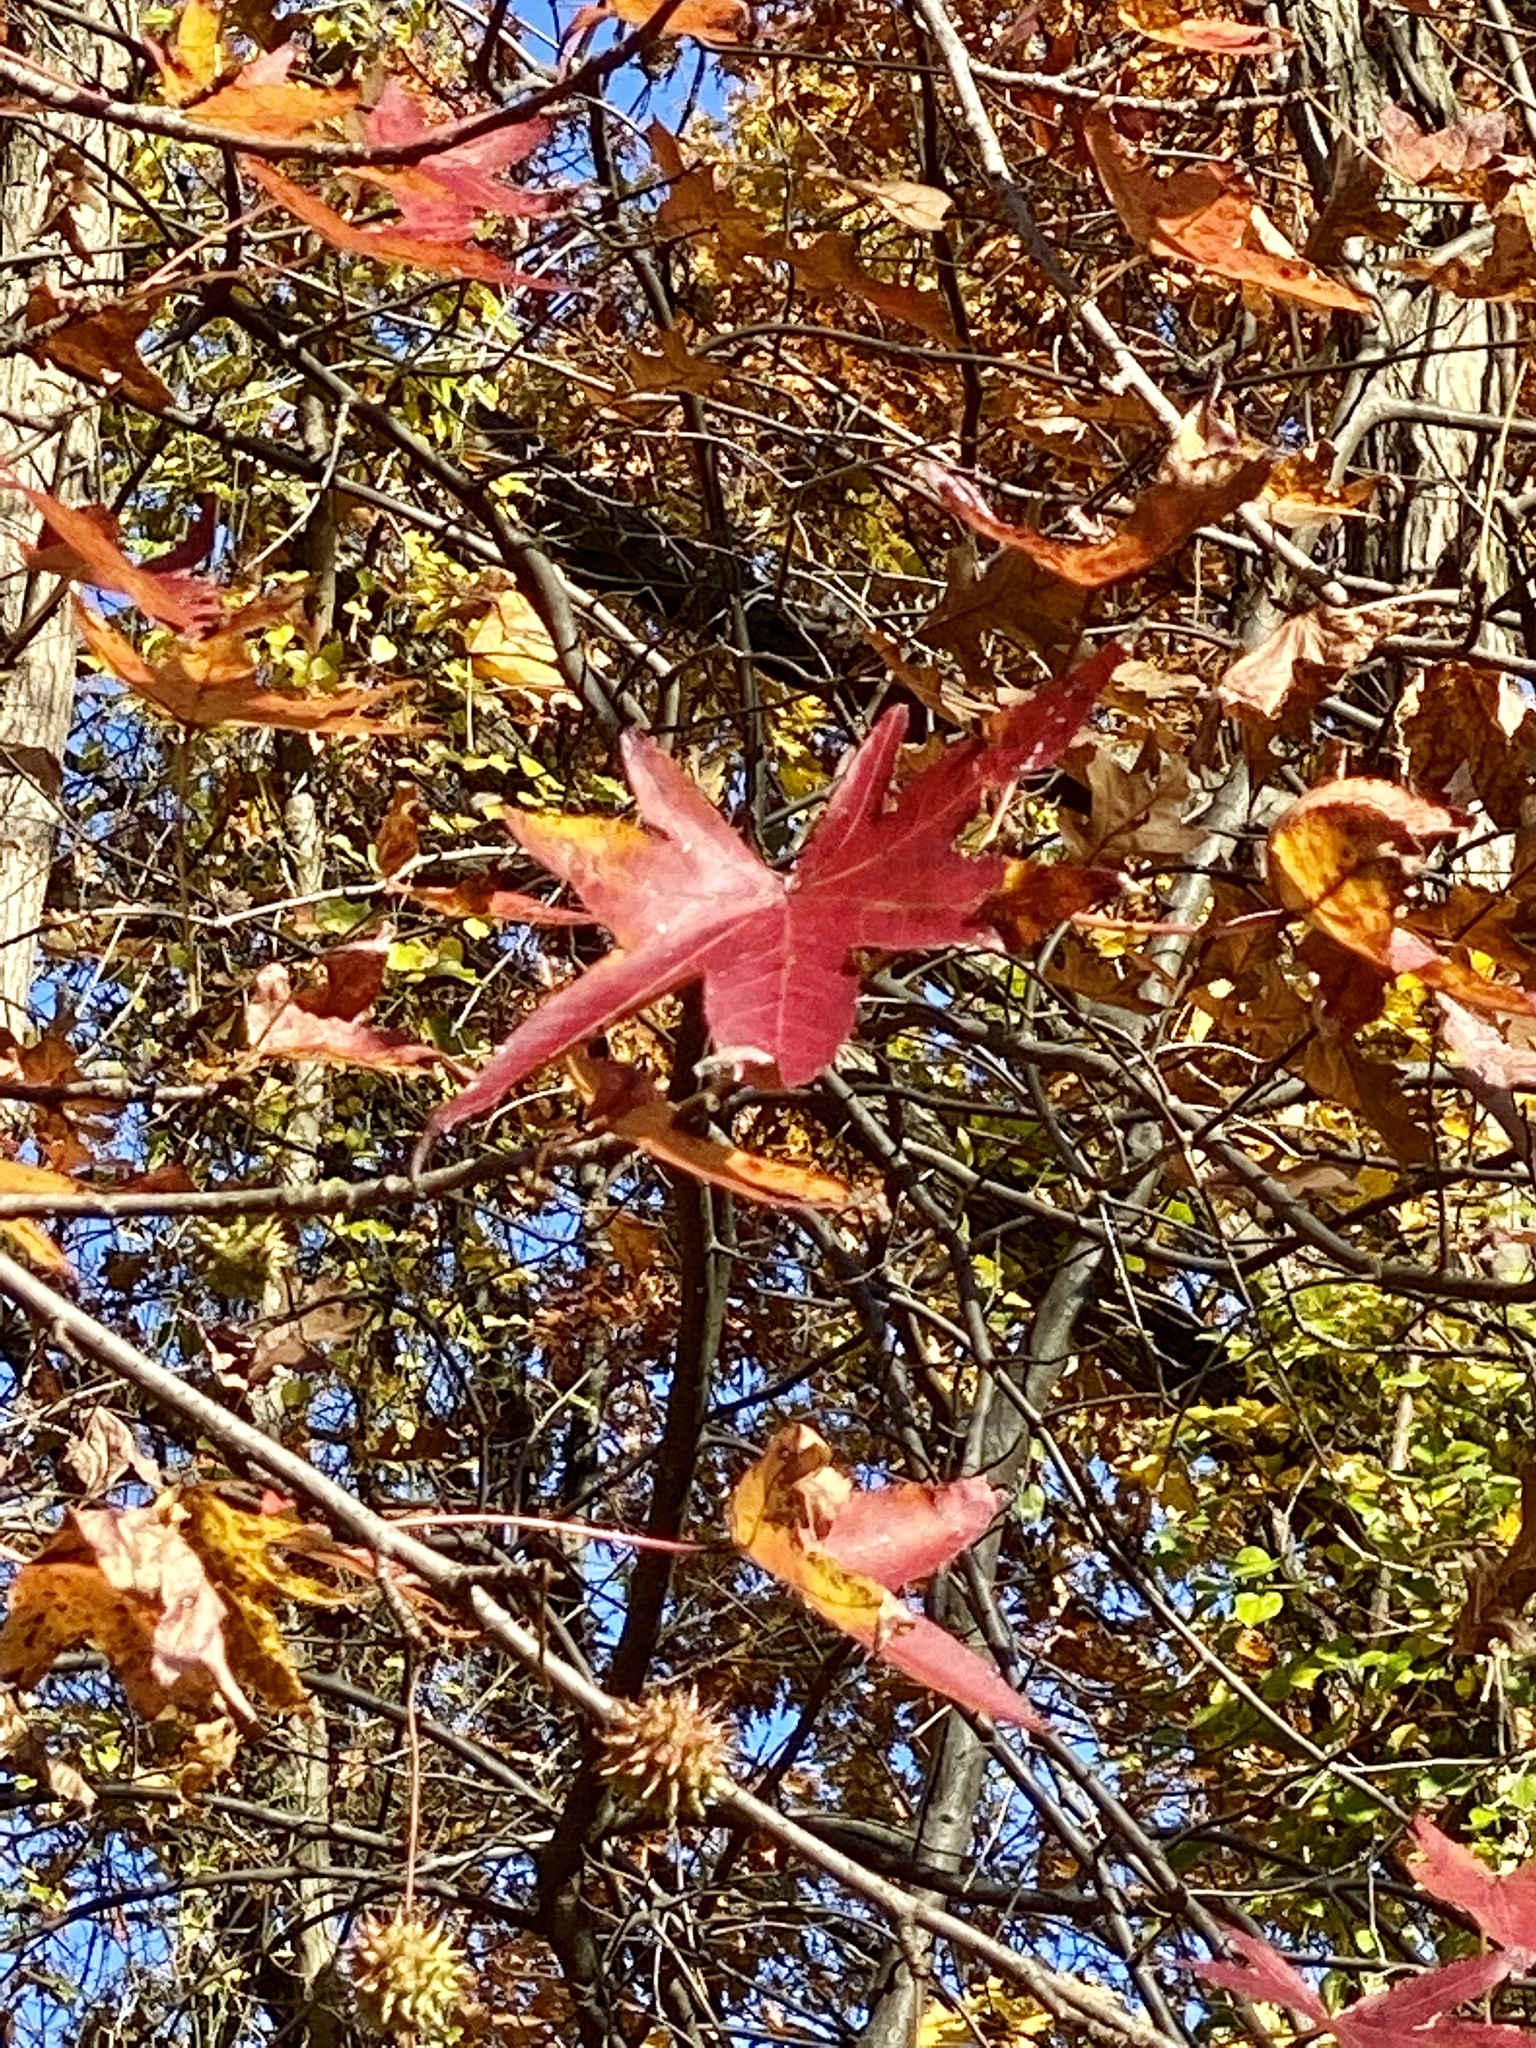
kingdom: Plantae
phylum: Tracheophyta
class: Magnoliopsida
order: Saxifragales
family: Altingiaceae
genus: Liquidambar
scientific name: Liquidambar styraciflua
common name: Sweet gum
